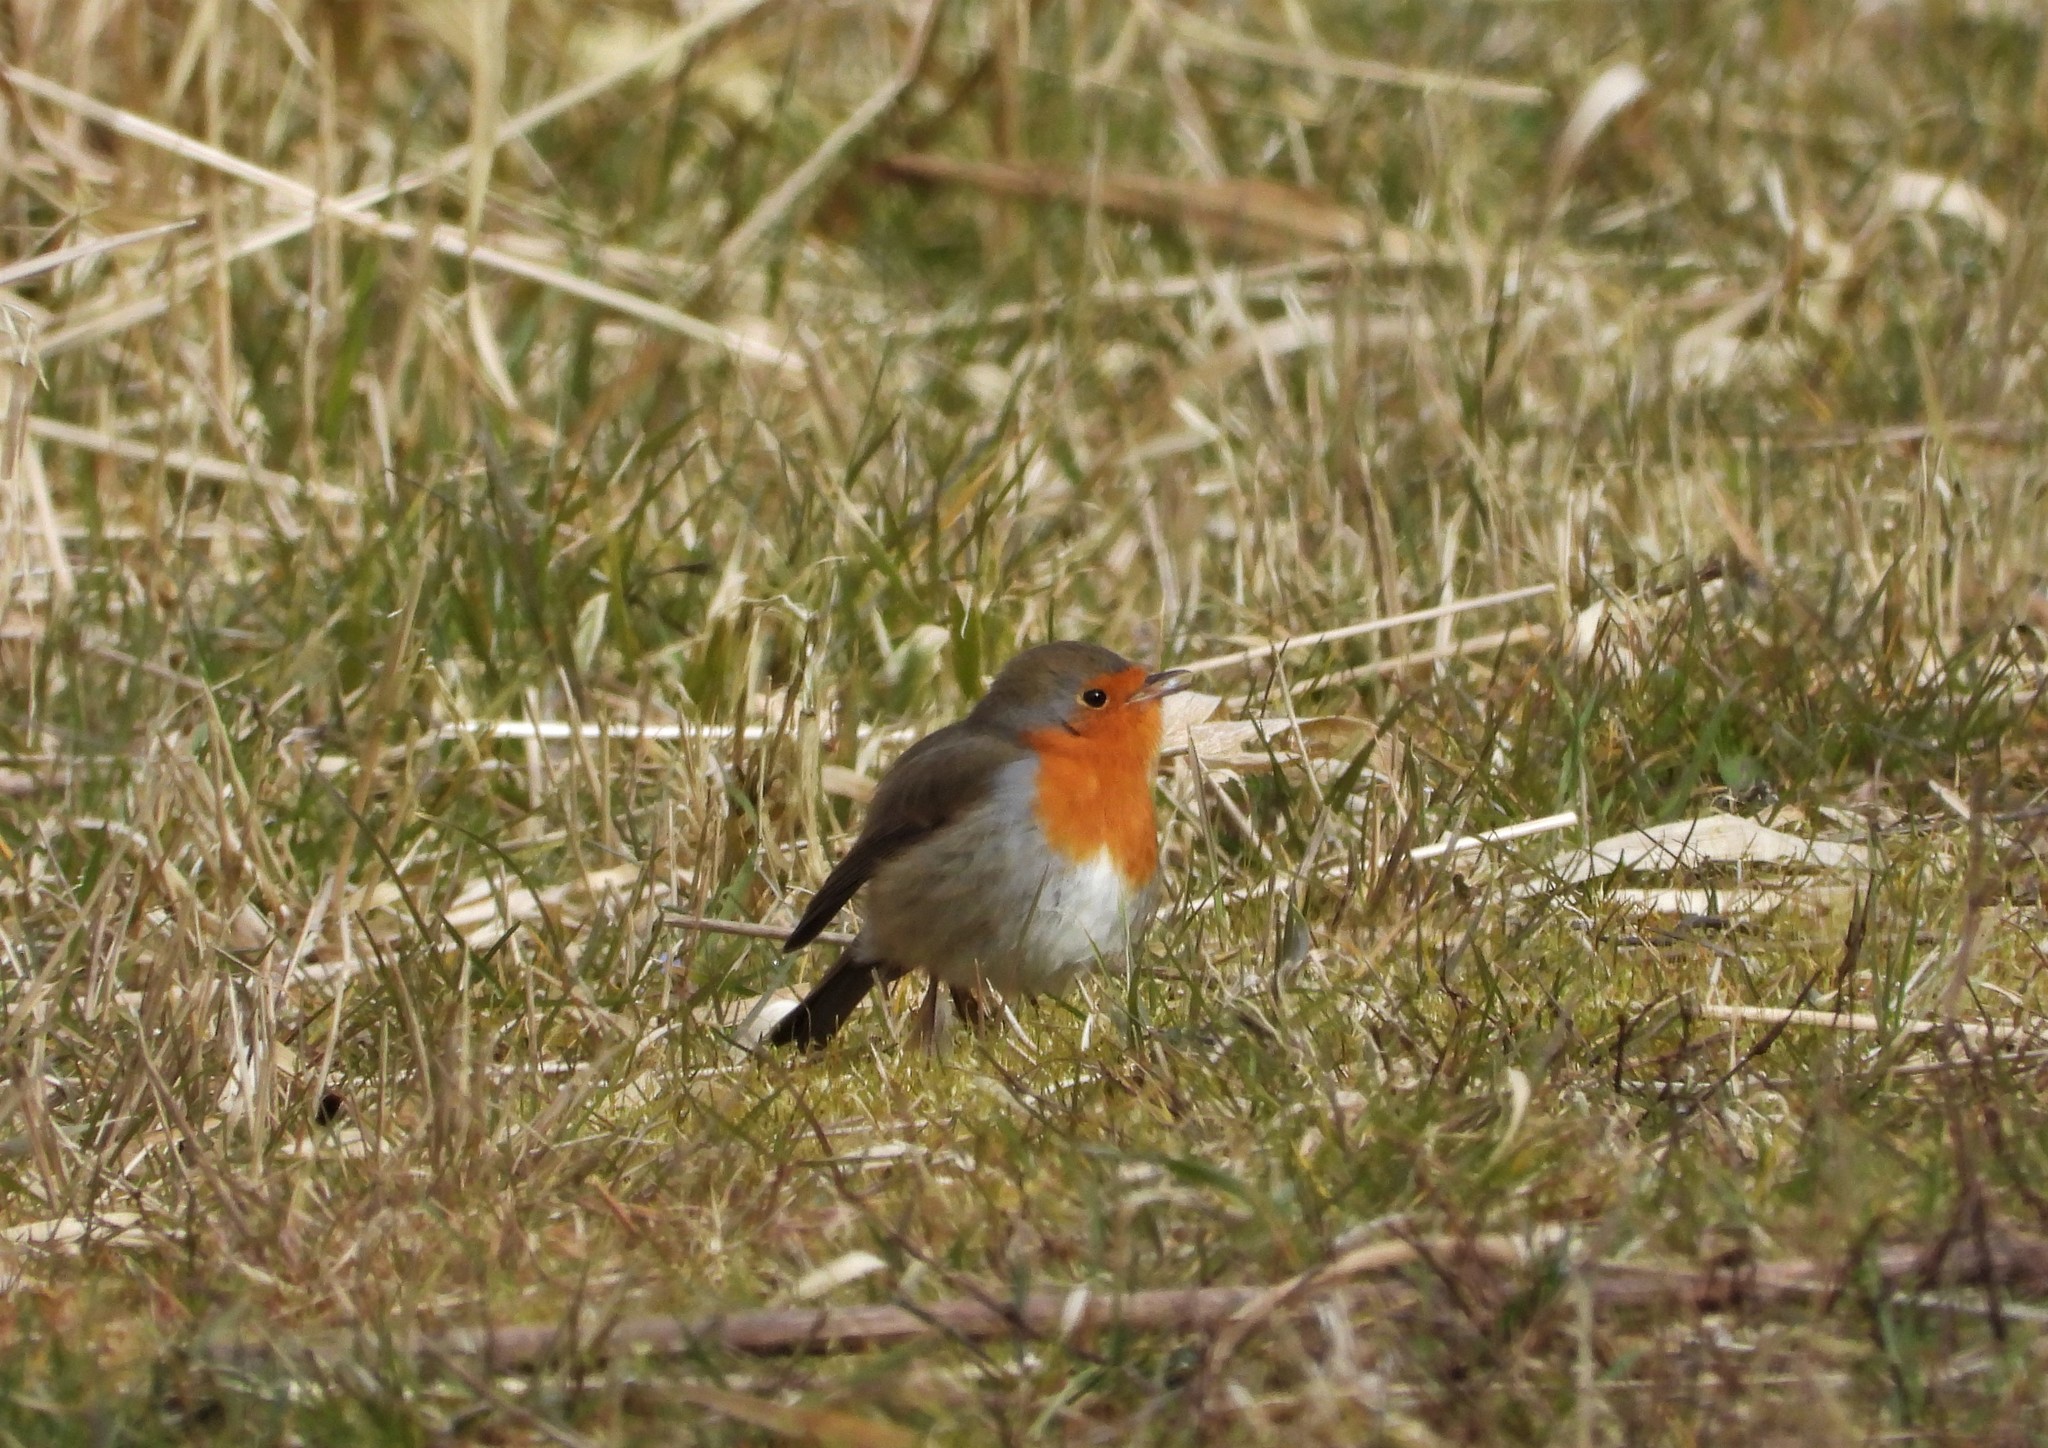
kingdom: Animalia
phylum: Chordata
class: Aves
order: Passeriformes
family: Muscicapidae
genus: Erithacus
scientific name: Erithacus rubecula
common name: European robin
